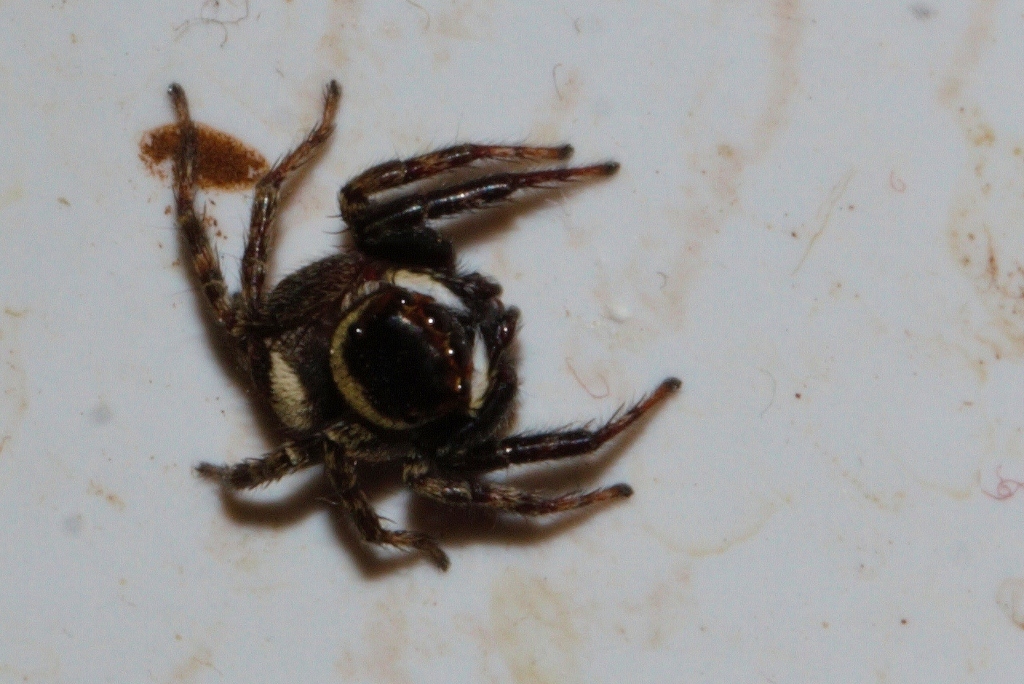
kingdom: Animalia
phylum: Arthropoda
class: Arachnida
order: Araneae
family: Salticidae
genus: Hasarius
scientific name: Hasarius adansoni
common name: Jumping spider
